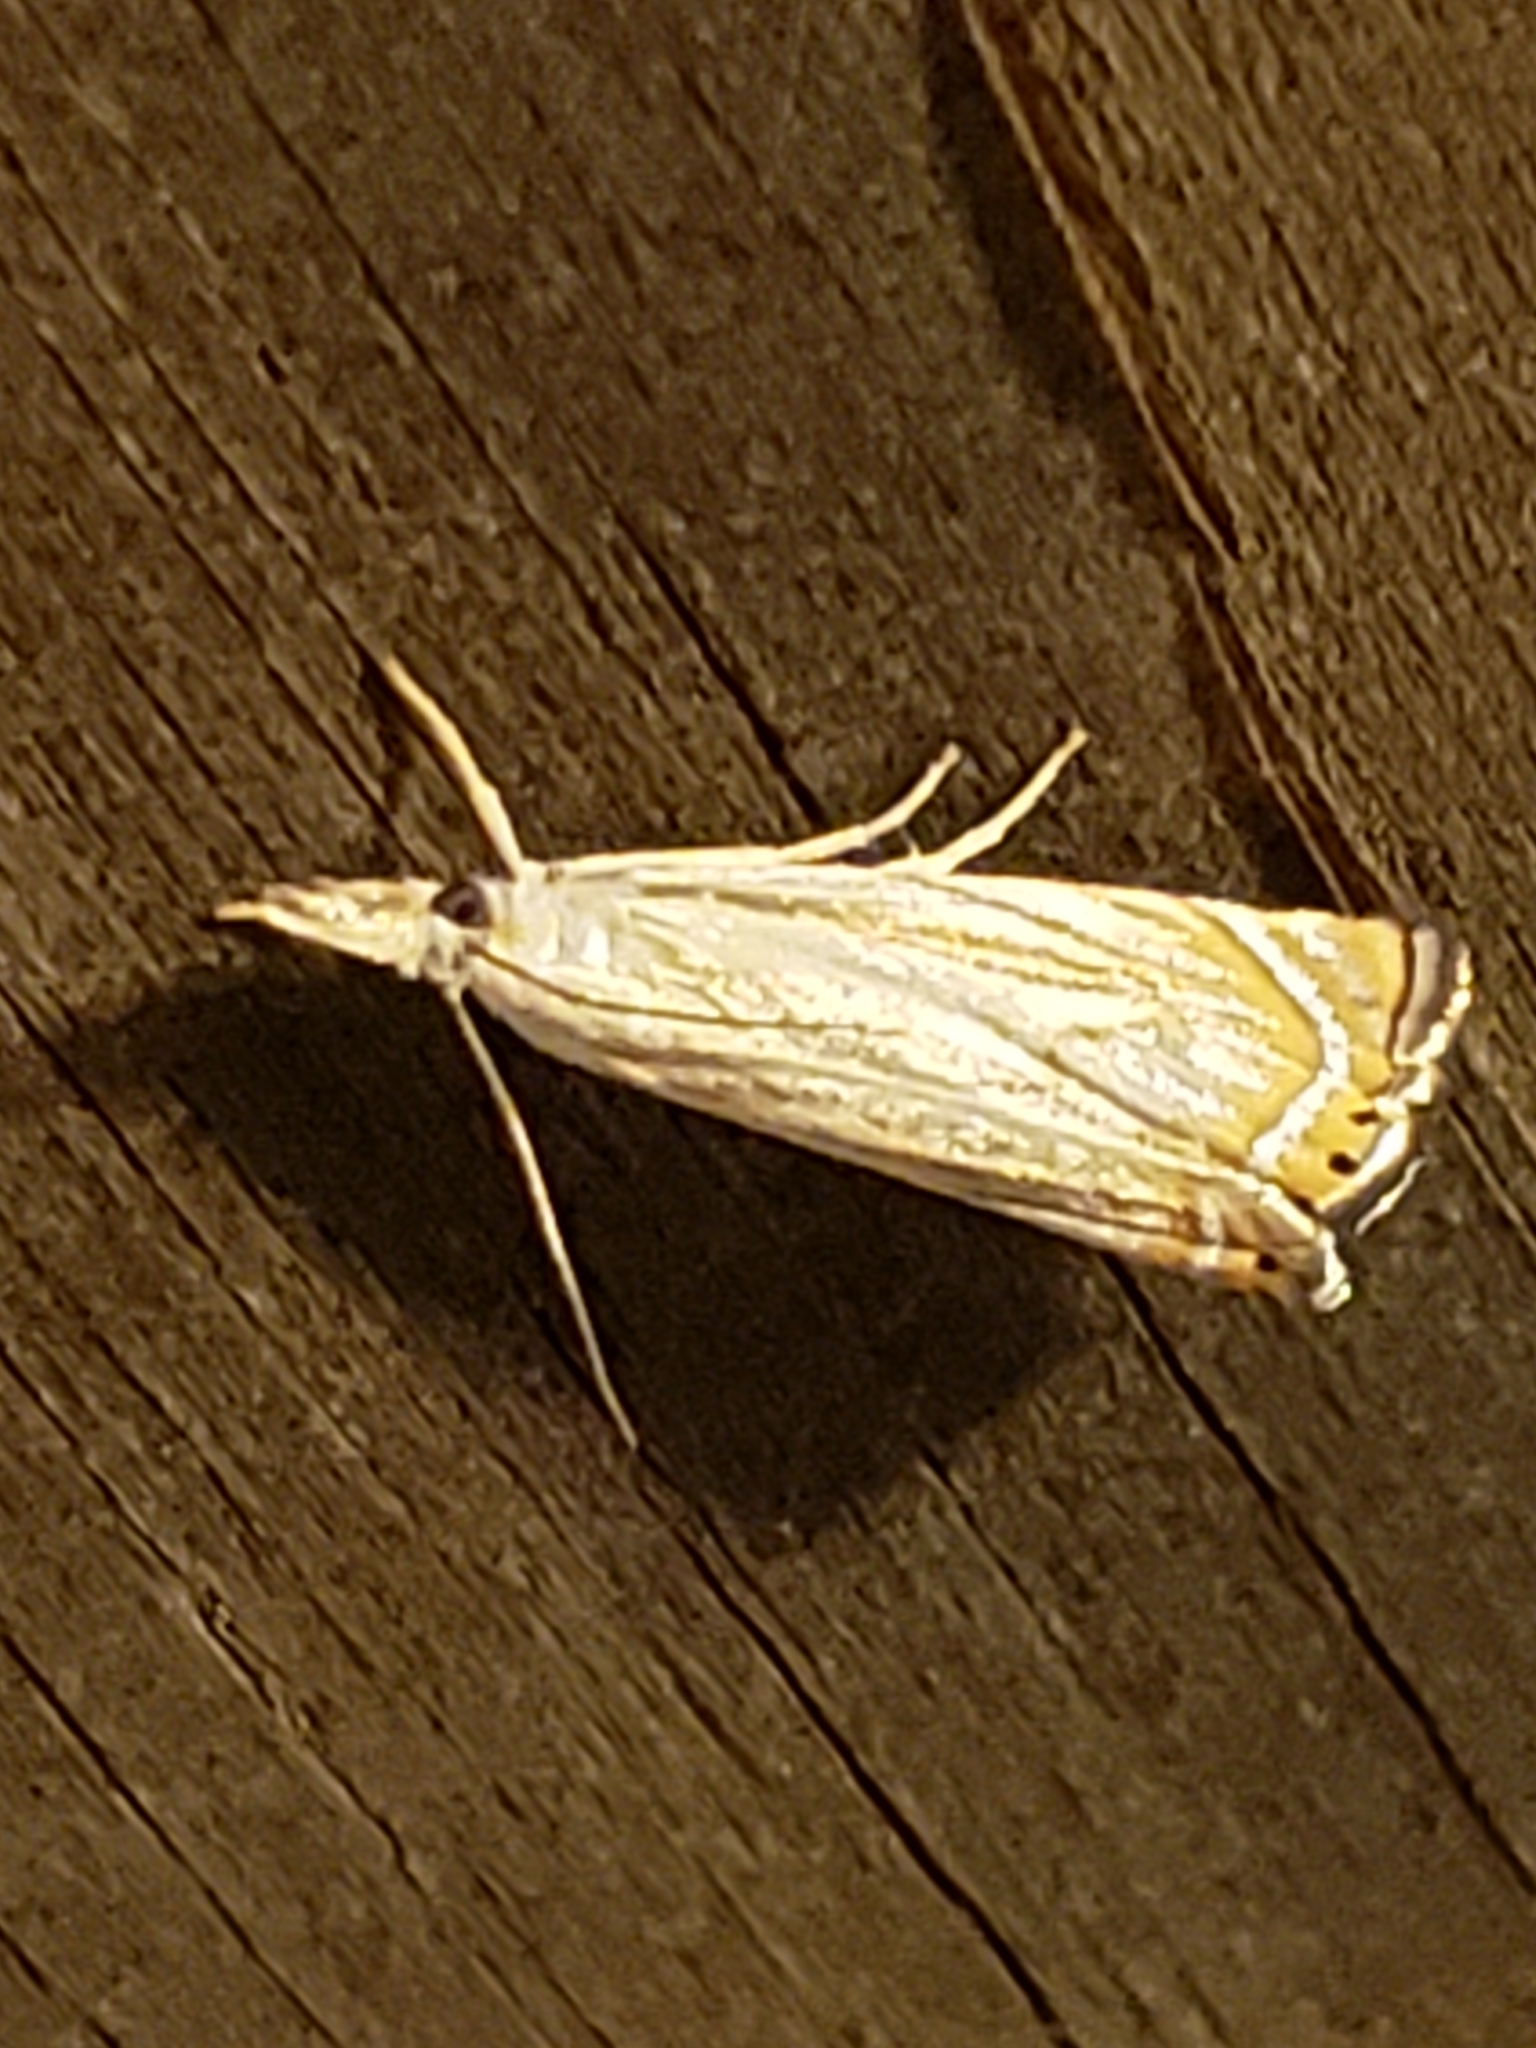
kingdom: Animalia
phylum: Arthropoda
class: Insecta
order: Lepidoptera
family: Crambidae
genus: Chrysoteuchia
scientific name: Chrysoteuchia topiarius
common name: Topiary grass-veneer
